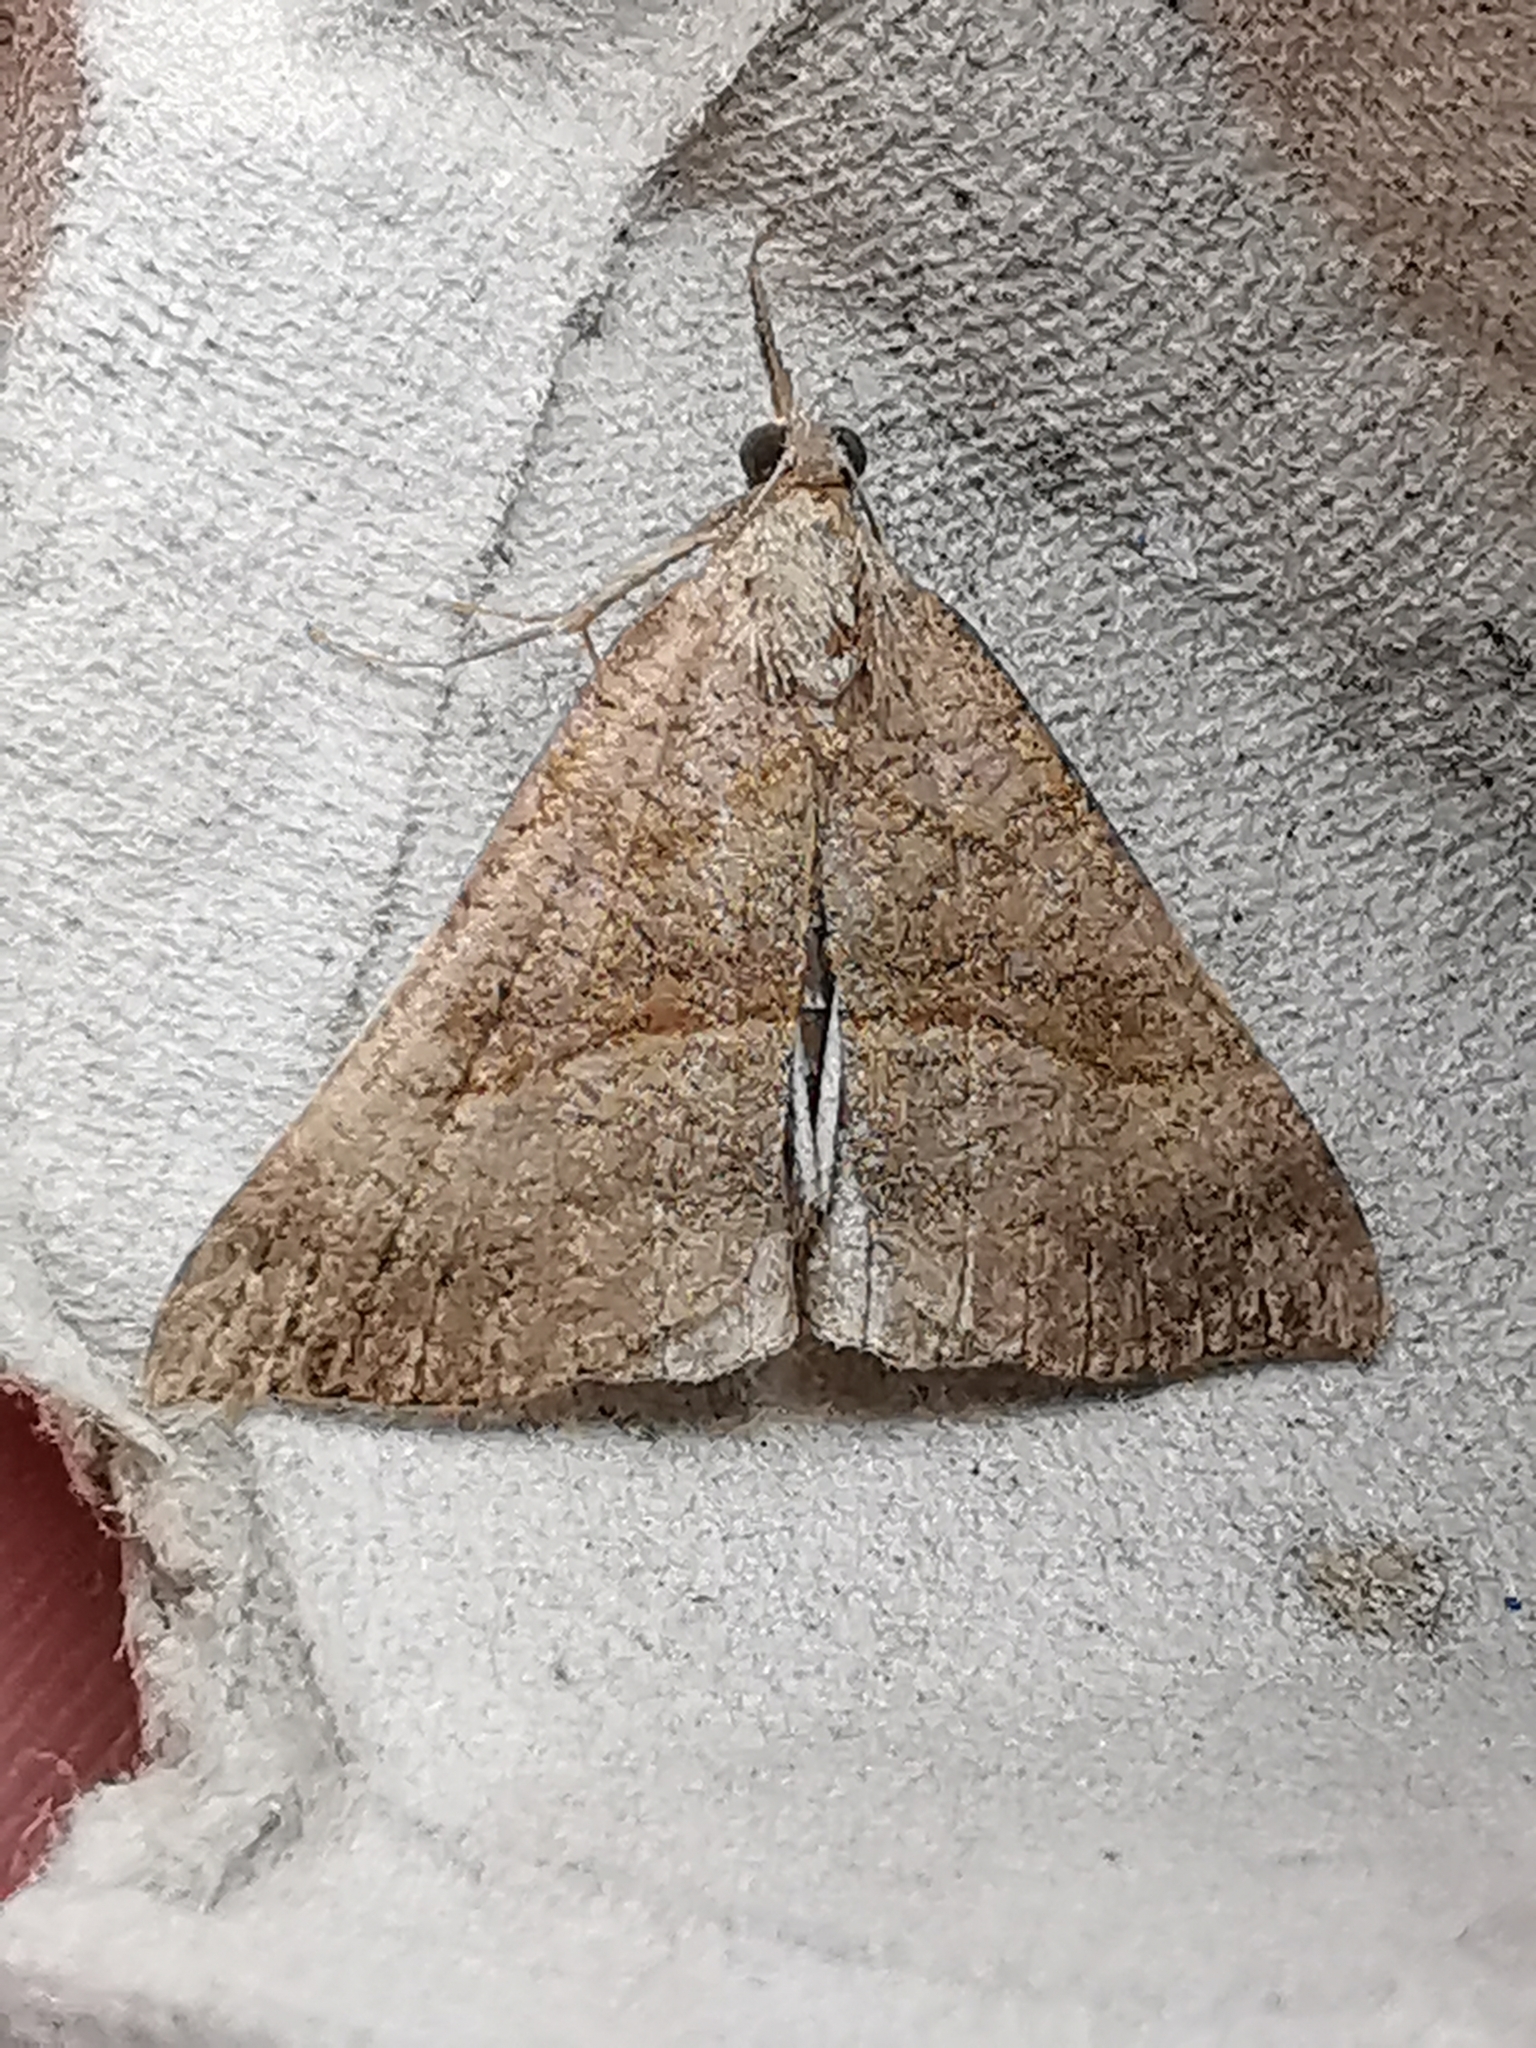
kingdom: Animalia
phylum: Arthropoda
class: Insecta
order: Lepidoptera
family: Erebidae
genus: Hypena
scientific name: Hypena proboscidalis
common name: Snout
